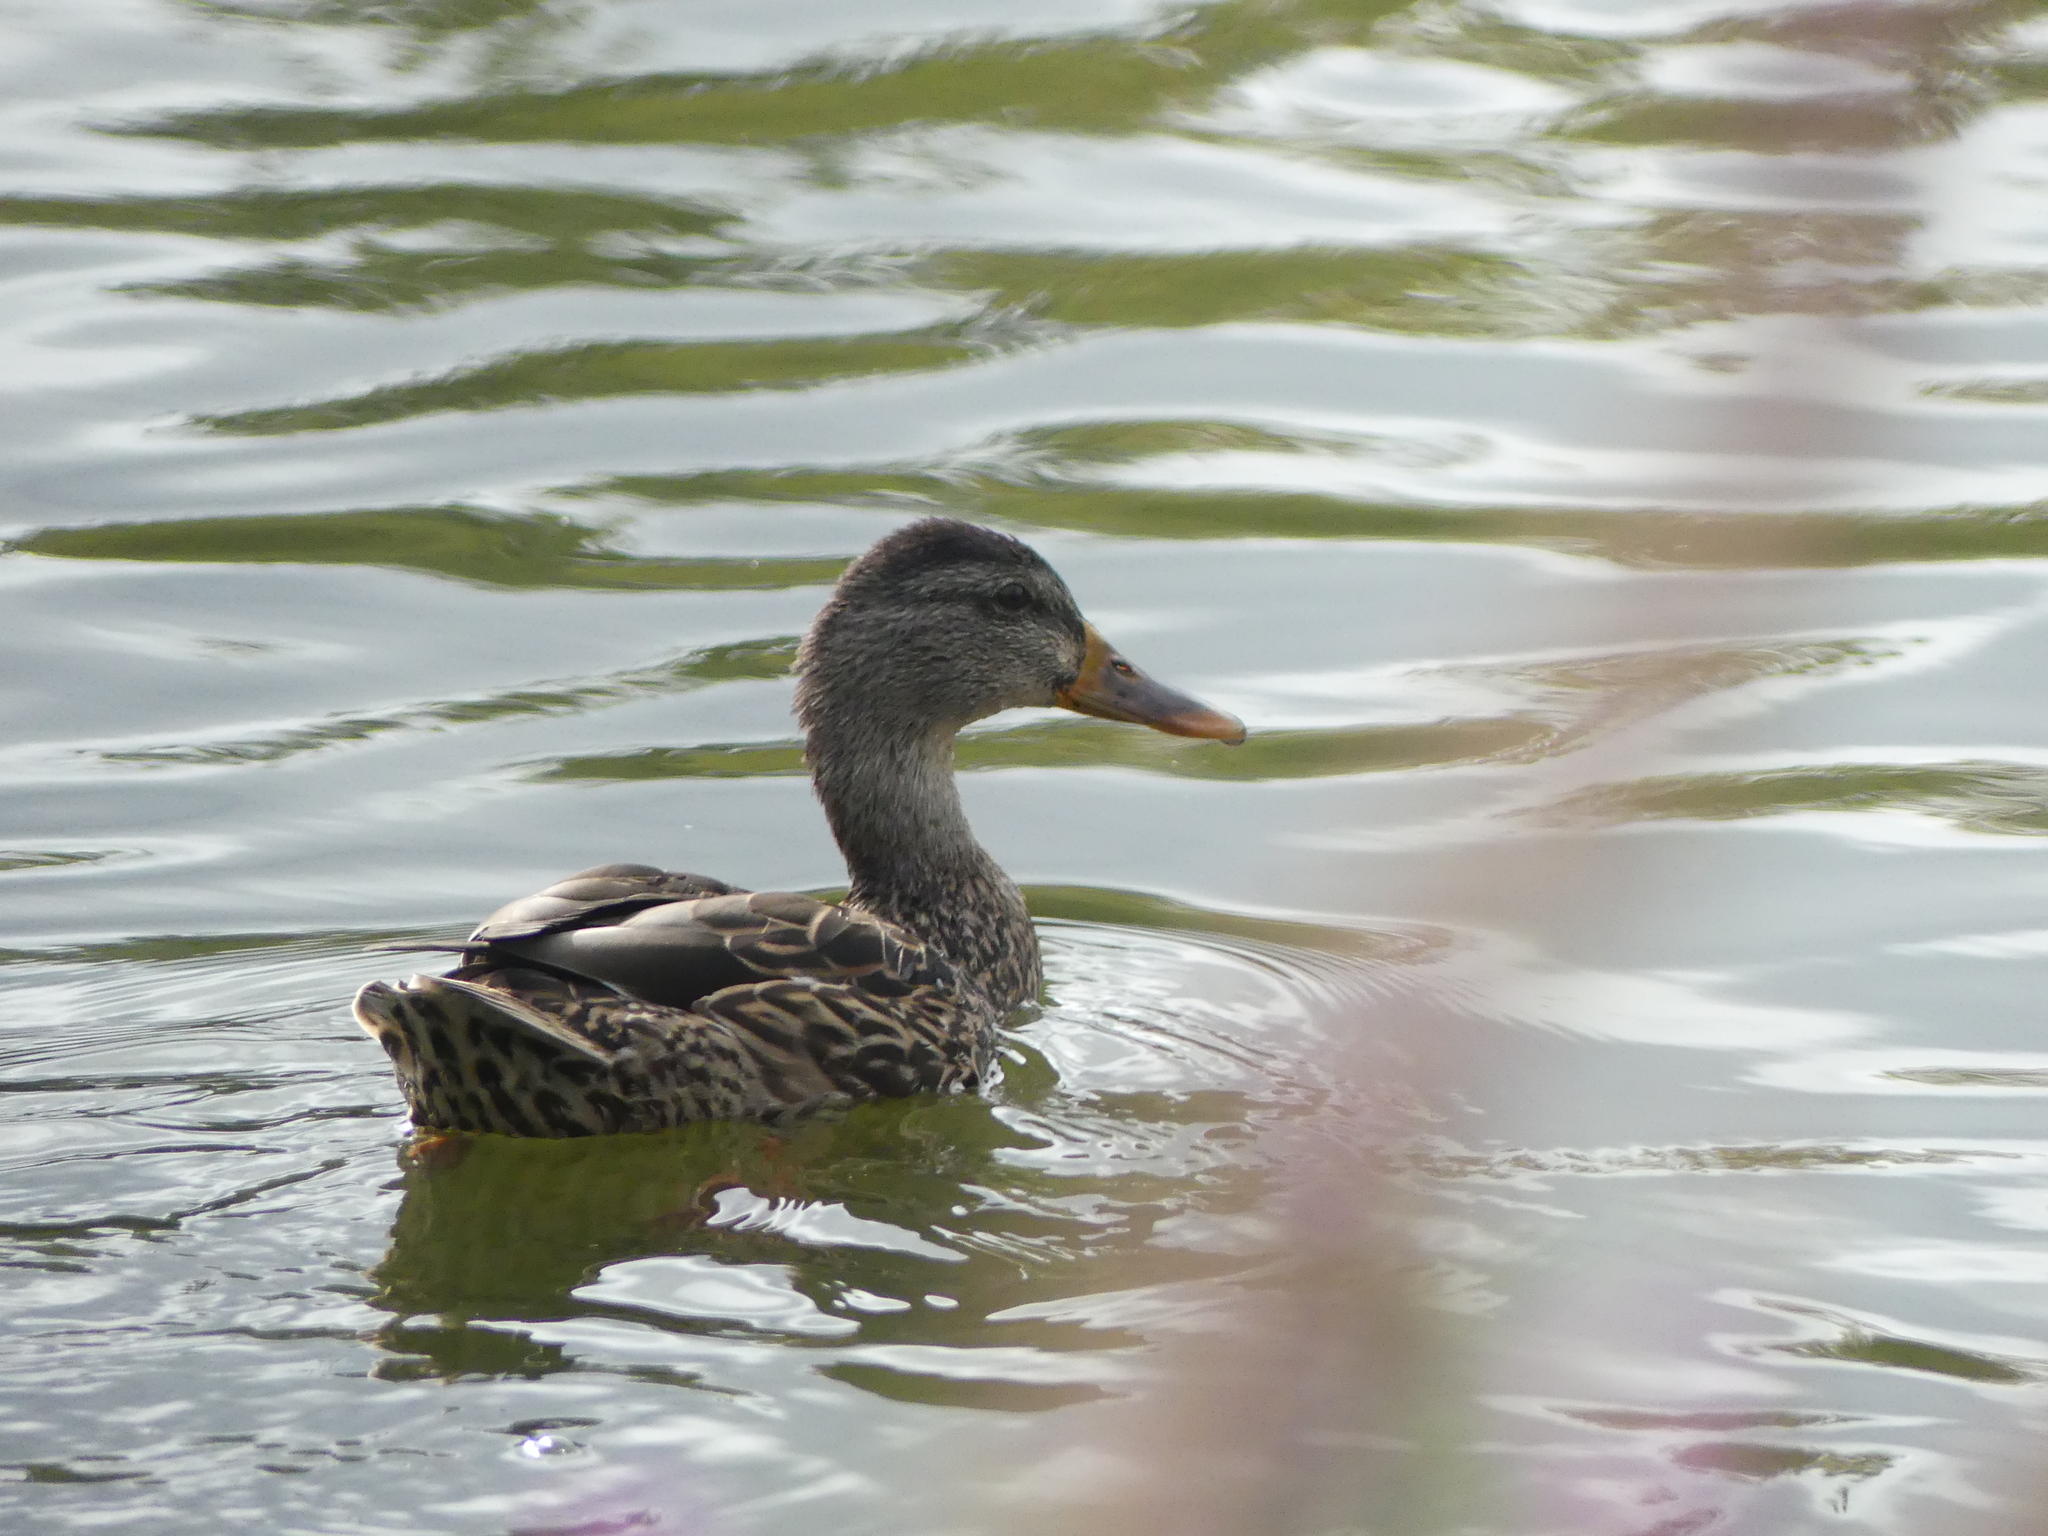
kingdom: Animalia
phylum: Chordata
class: Aves
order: Anseriformes
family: Anatidae
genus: Anas
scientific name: Anas platyrhynchos
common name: Mallard
